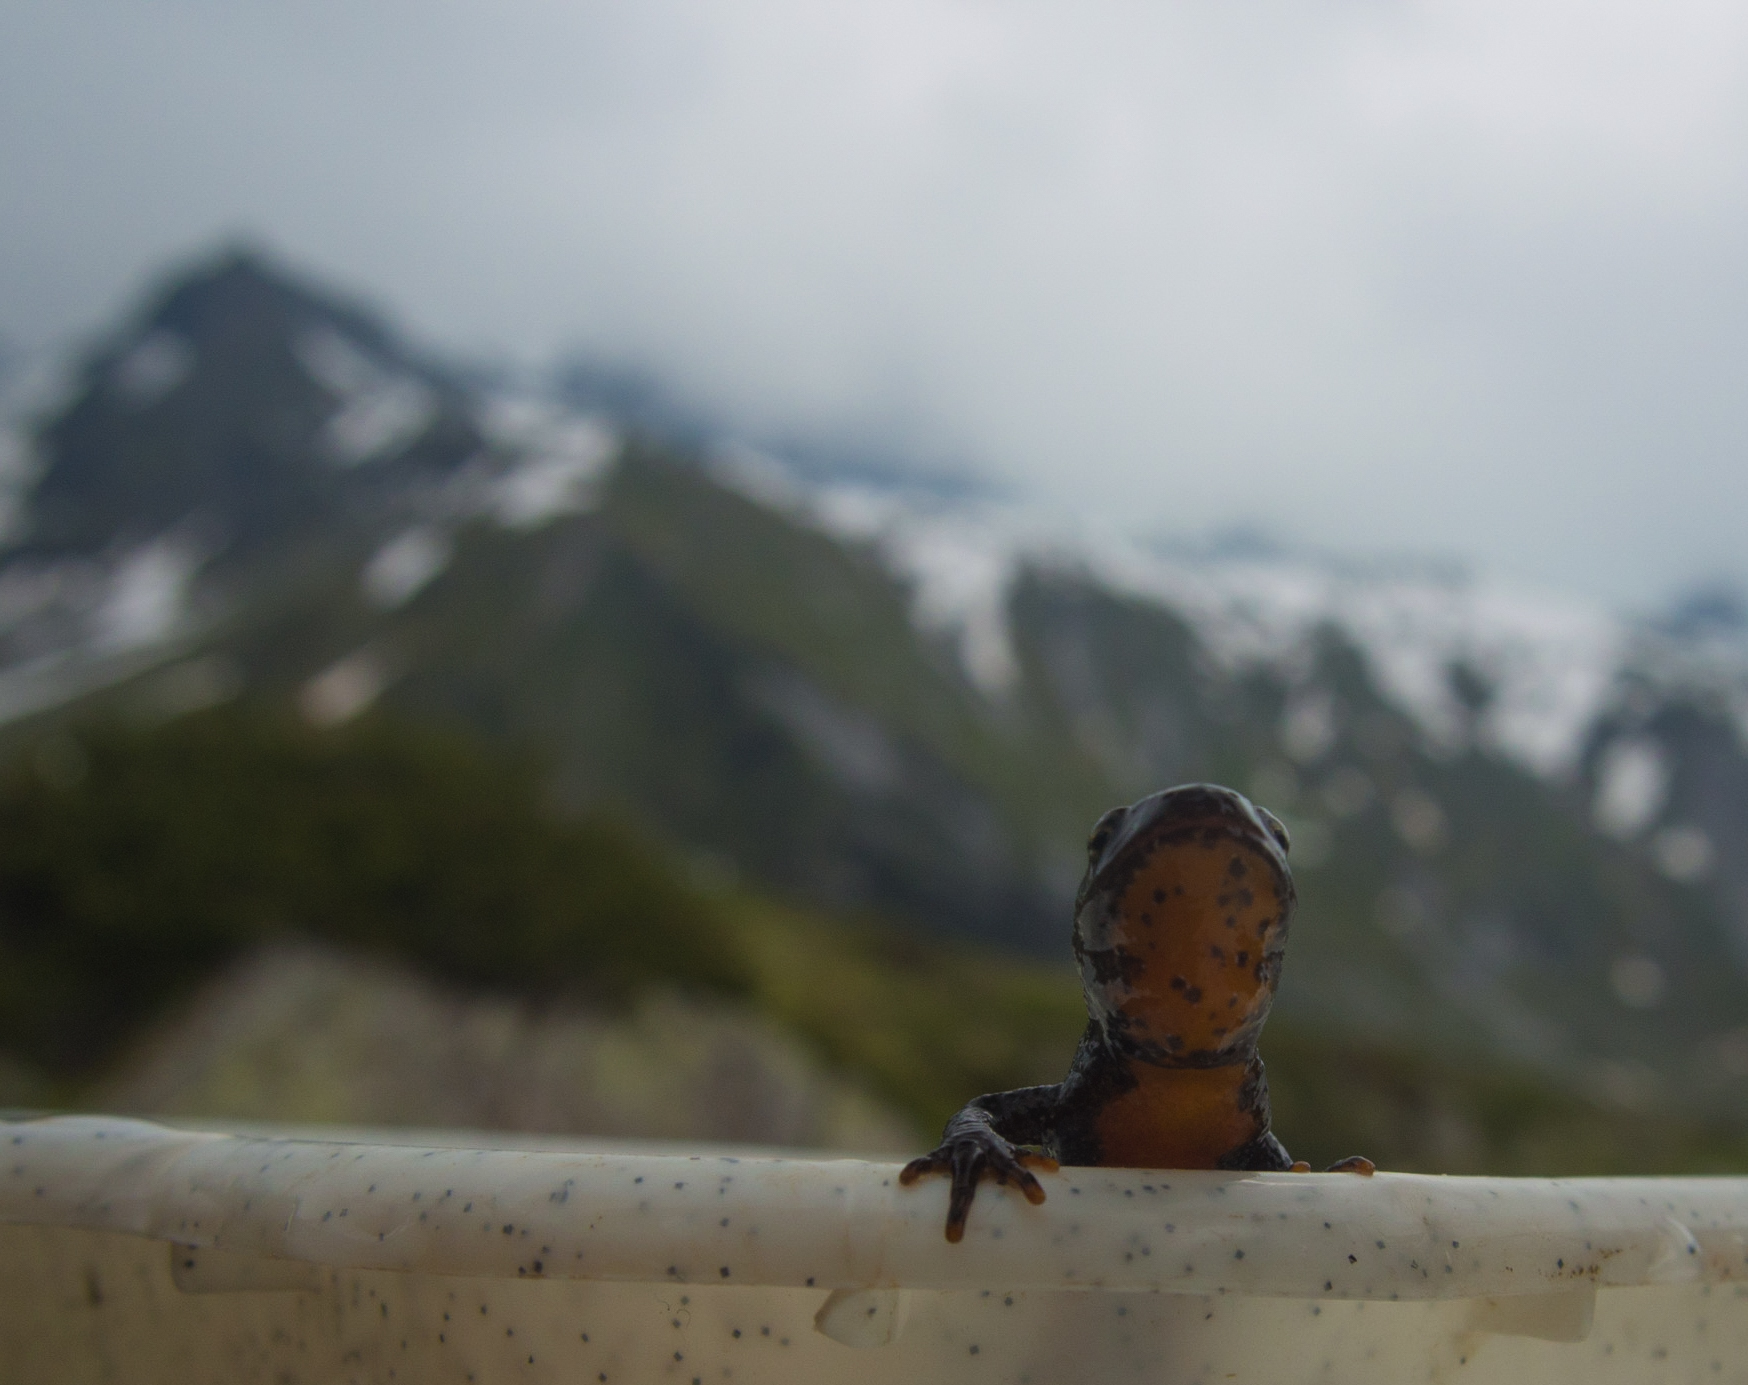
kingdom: Animalia
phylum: Chordata
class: Amphibia
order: Caudata
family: Salamandridae
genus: Ichthyosaura
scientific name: Ichthyosaura alpestris
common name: Alpine newt
